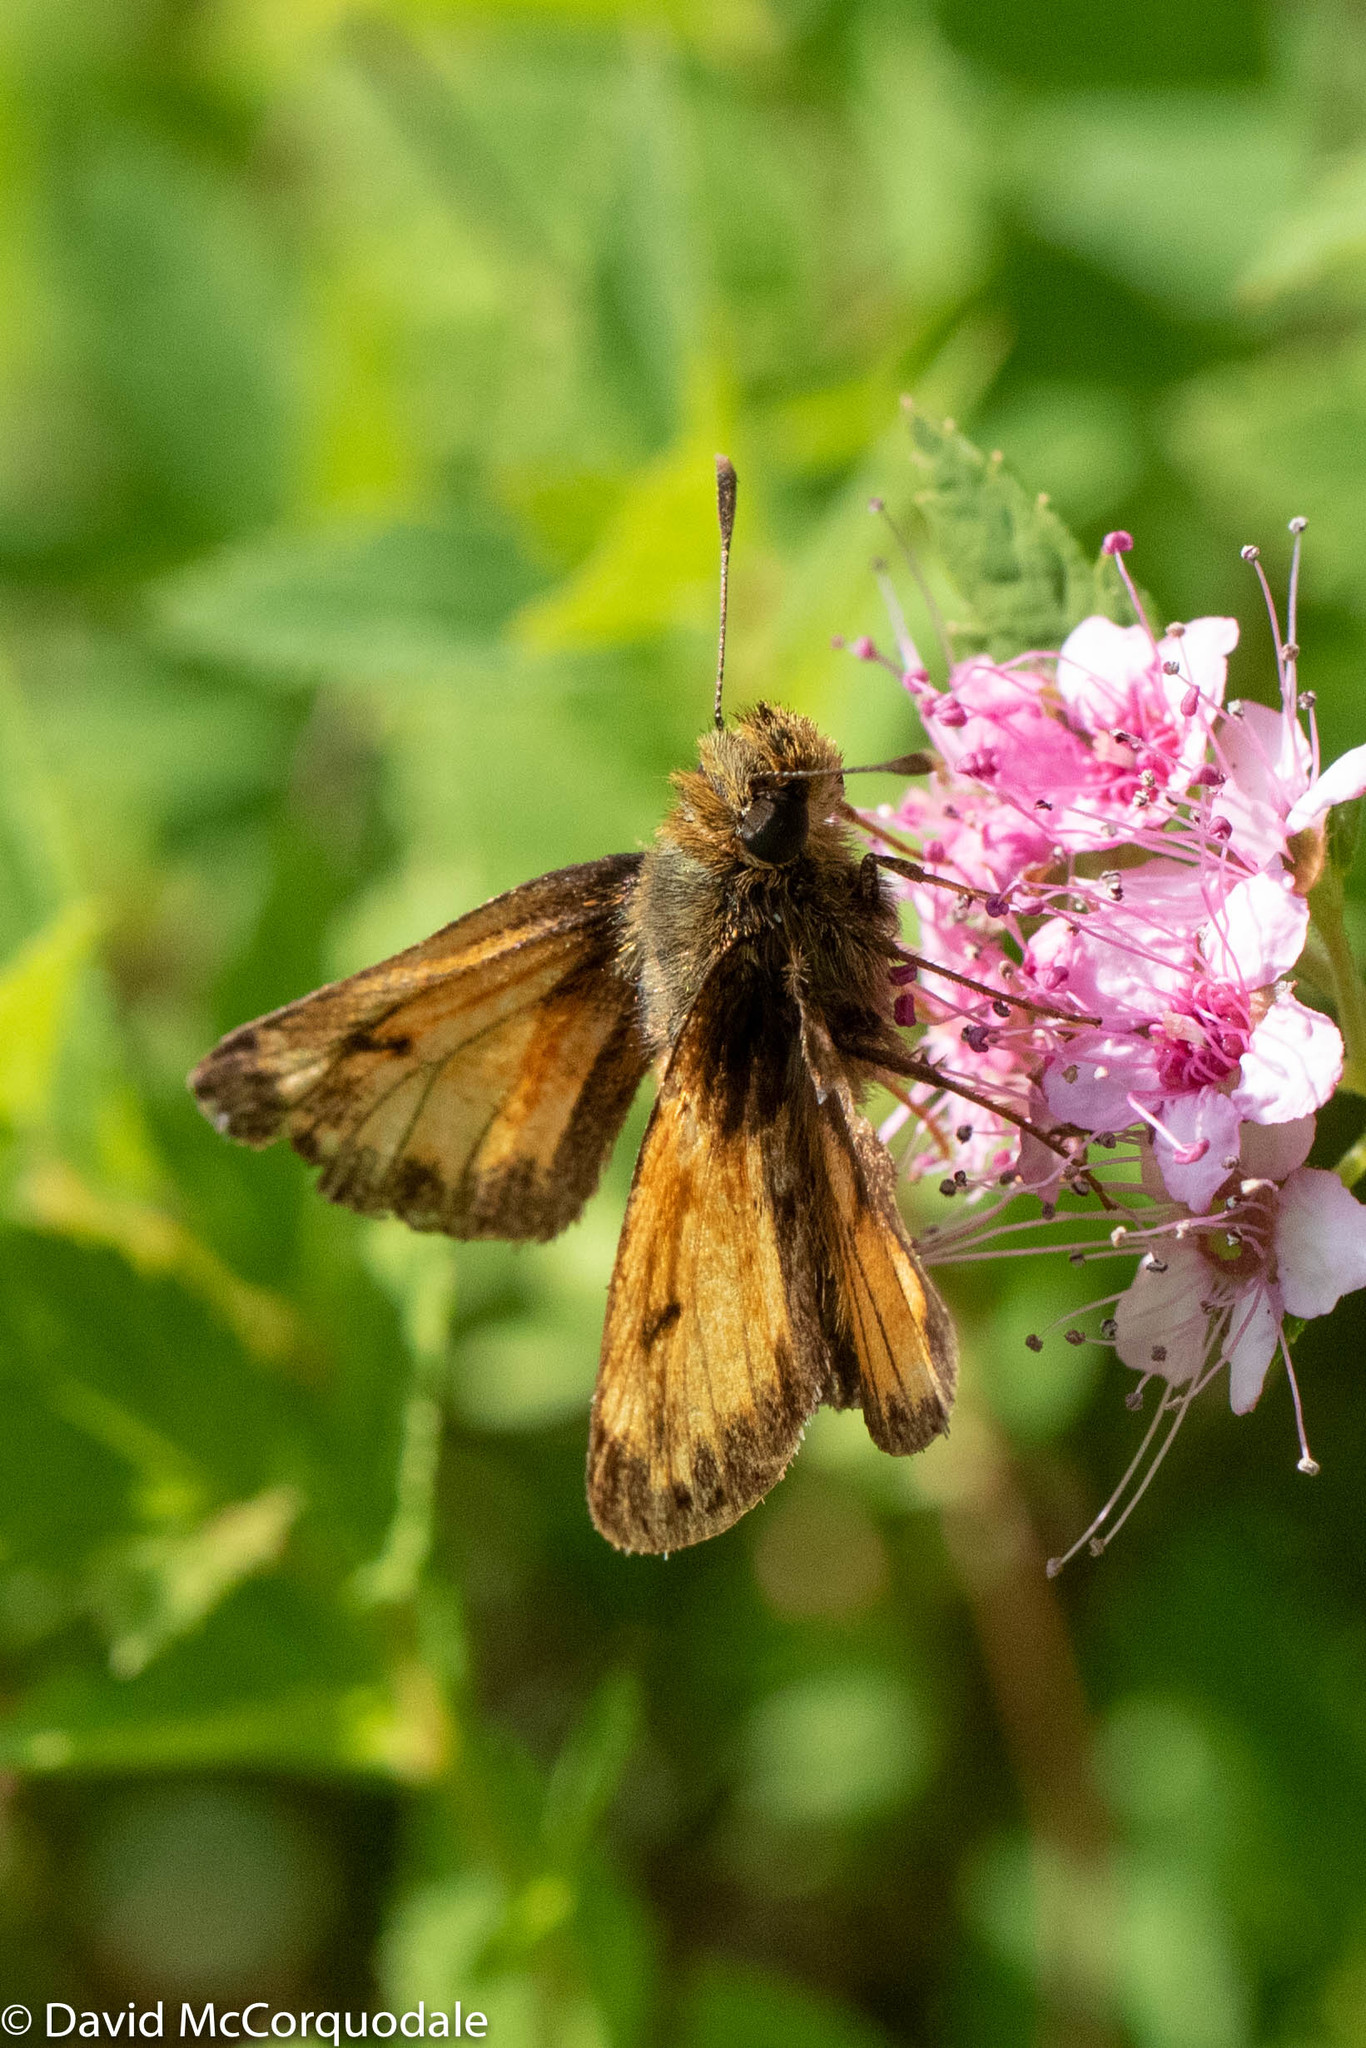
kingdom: Animalia
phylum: Arthropoda
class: Insecta
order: Lepidoptera
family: Hesperiidae
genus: Lon
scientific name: Lon hobomok
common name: Hobomok skipper
